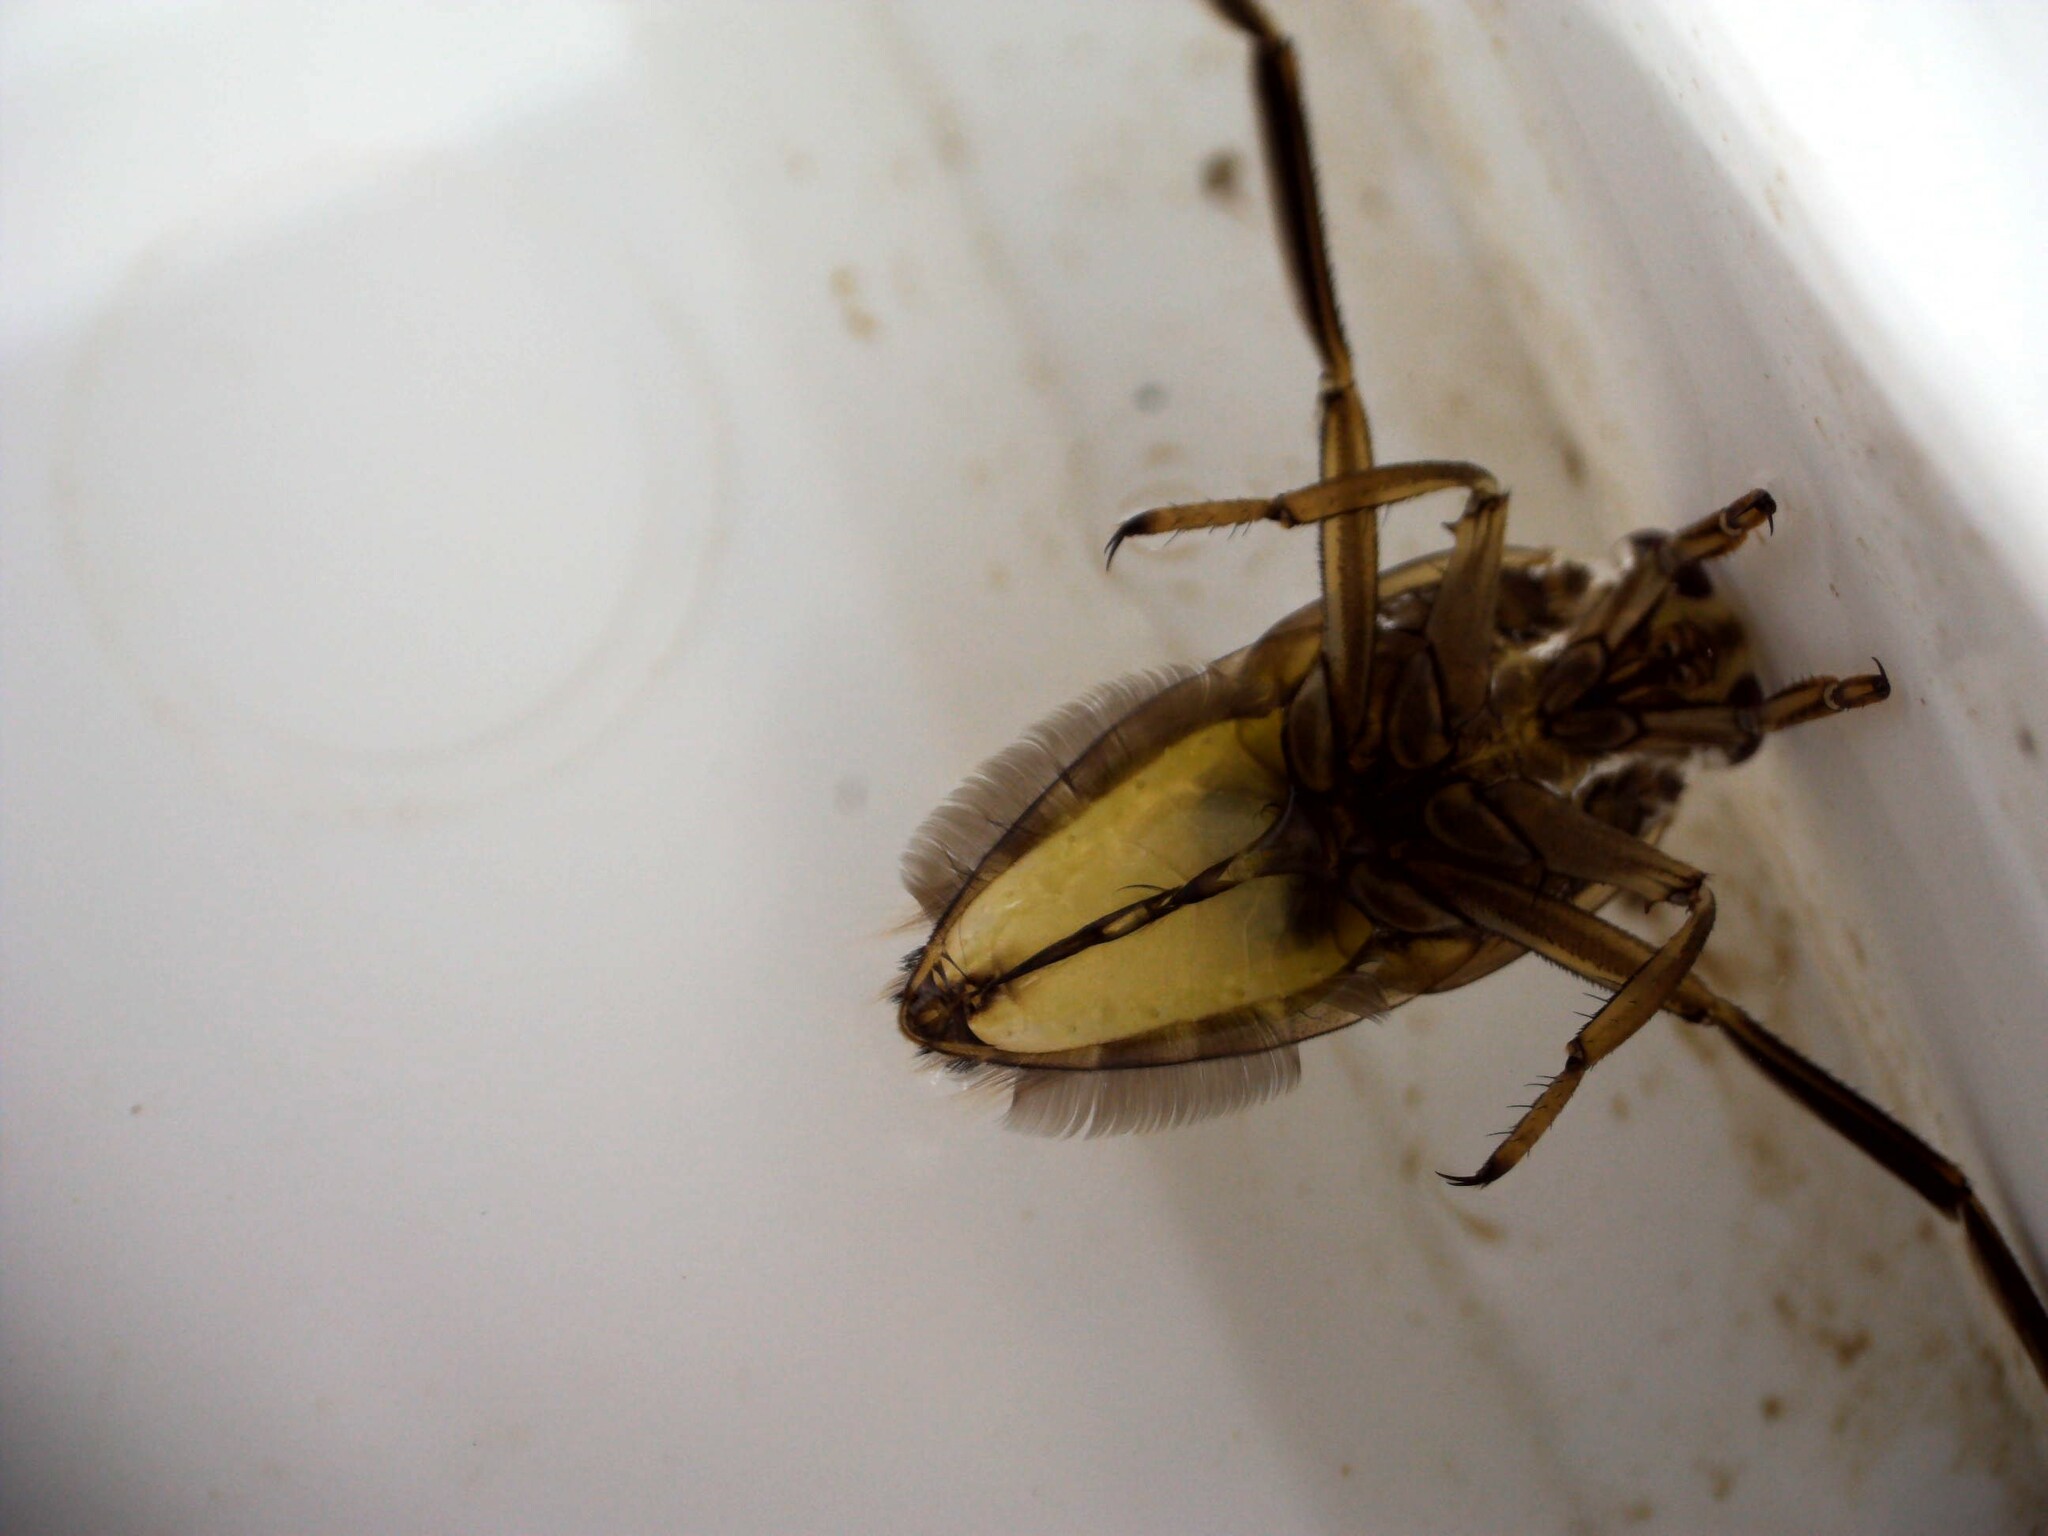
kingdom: Animalia
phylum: Arthropoda
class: Insecta
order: Hemiptera
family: Notonectidae
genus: Notonecta
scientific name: Notonecta
